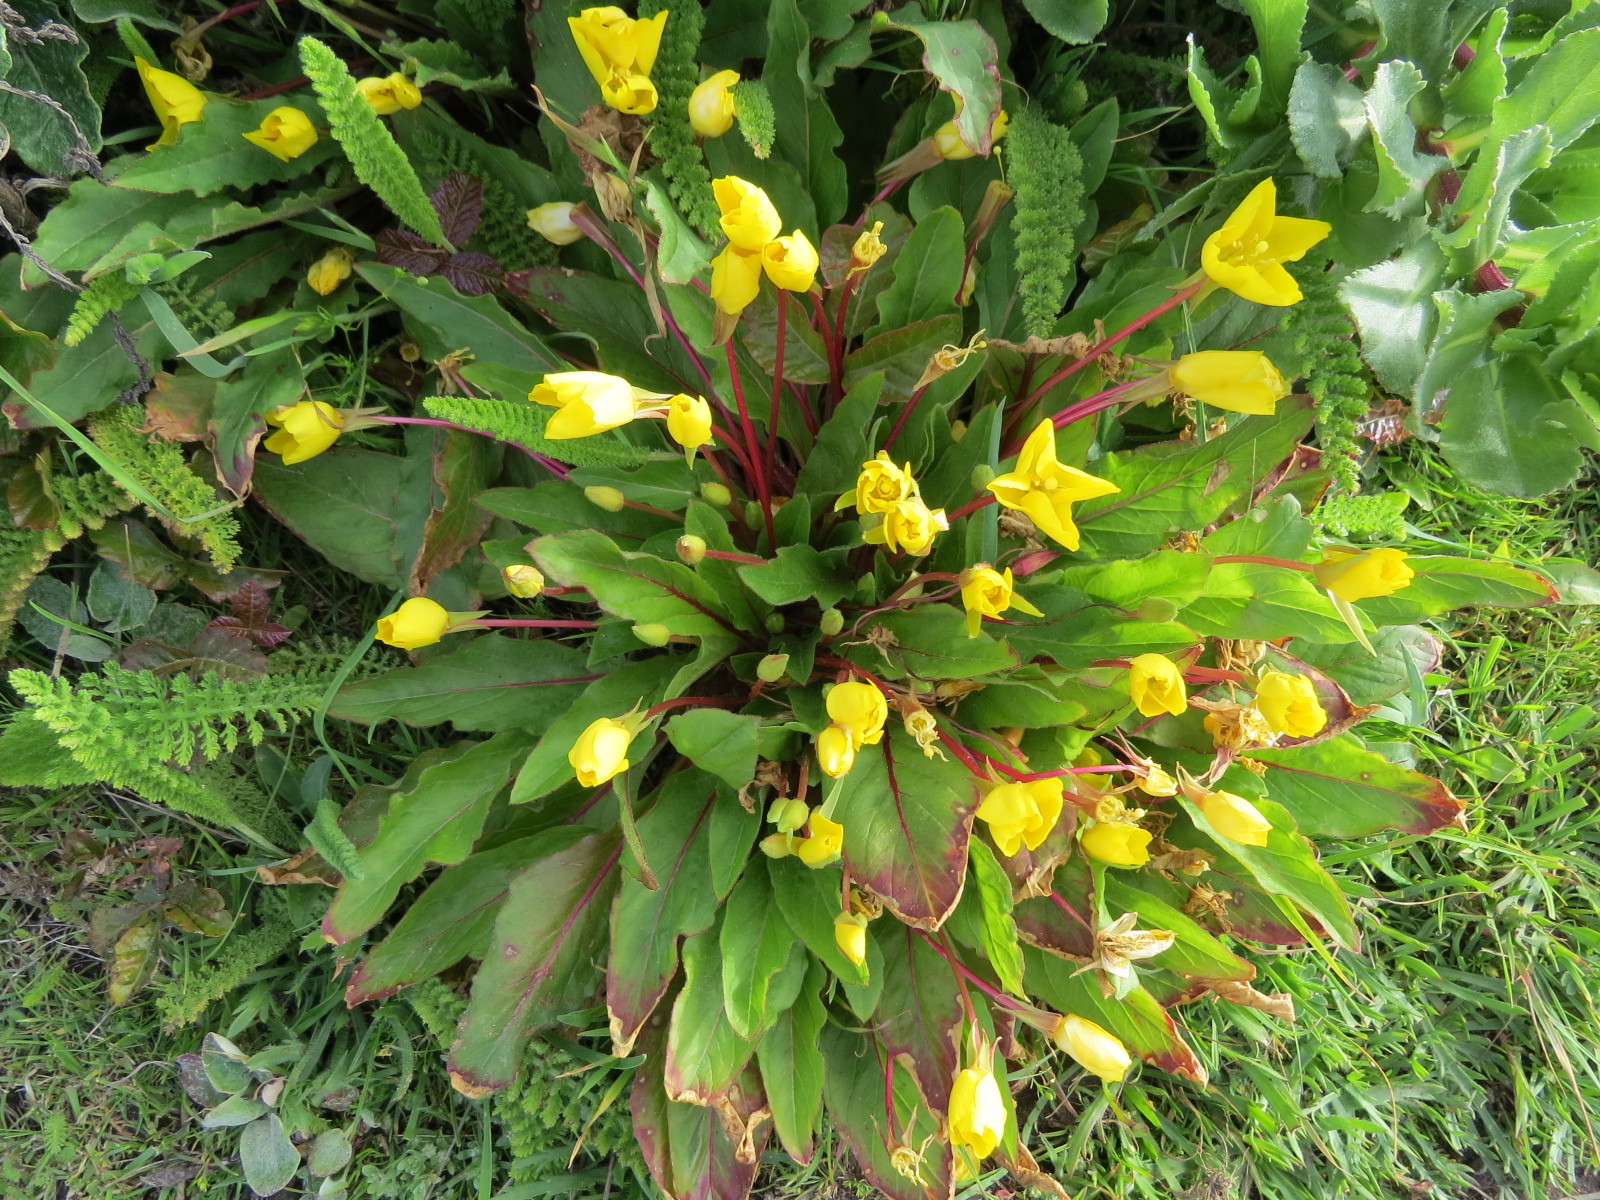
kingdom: Plantae
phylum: Tracheophyta
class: Magnoliopsida
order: Myrtales
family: Onagraceae
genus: Taraxia
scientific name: Taraxia ovata
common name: Goldeneggs
